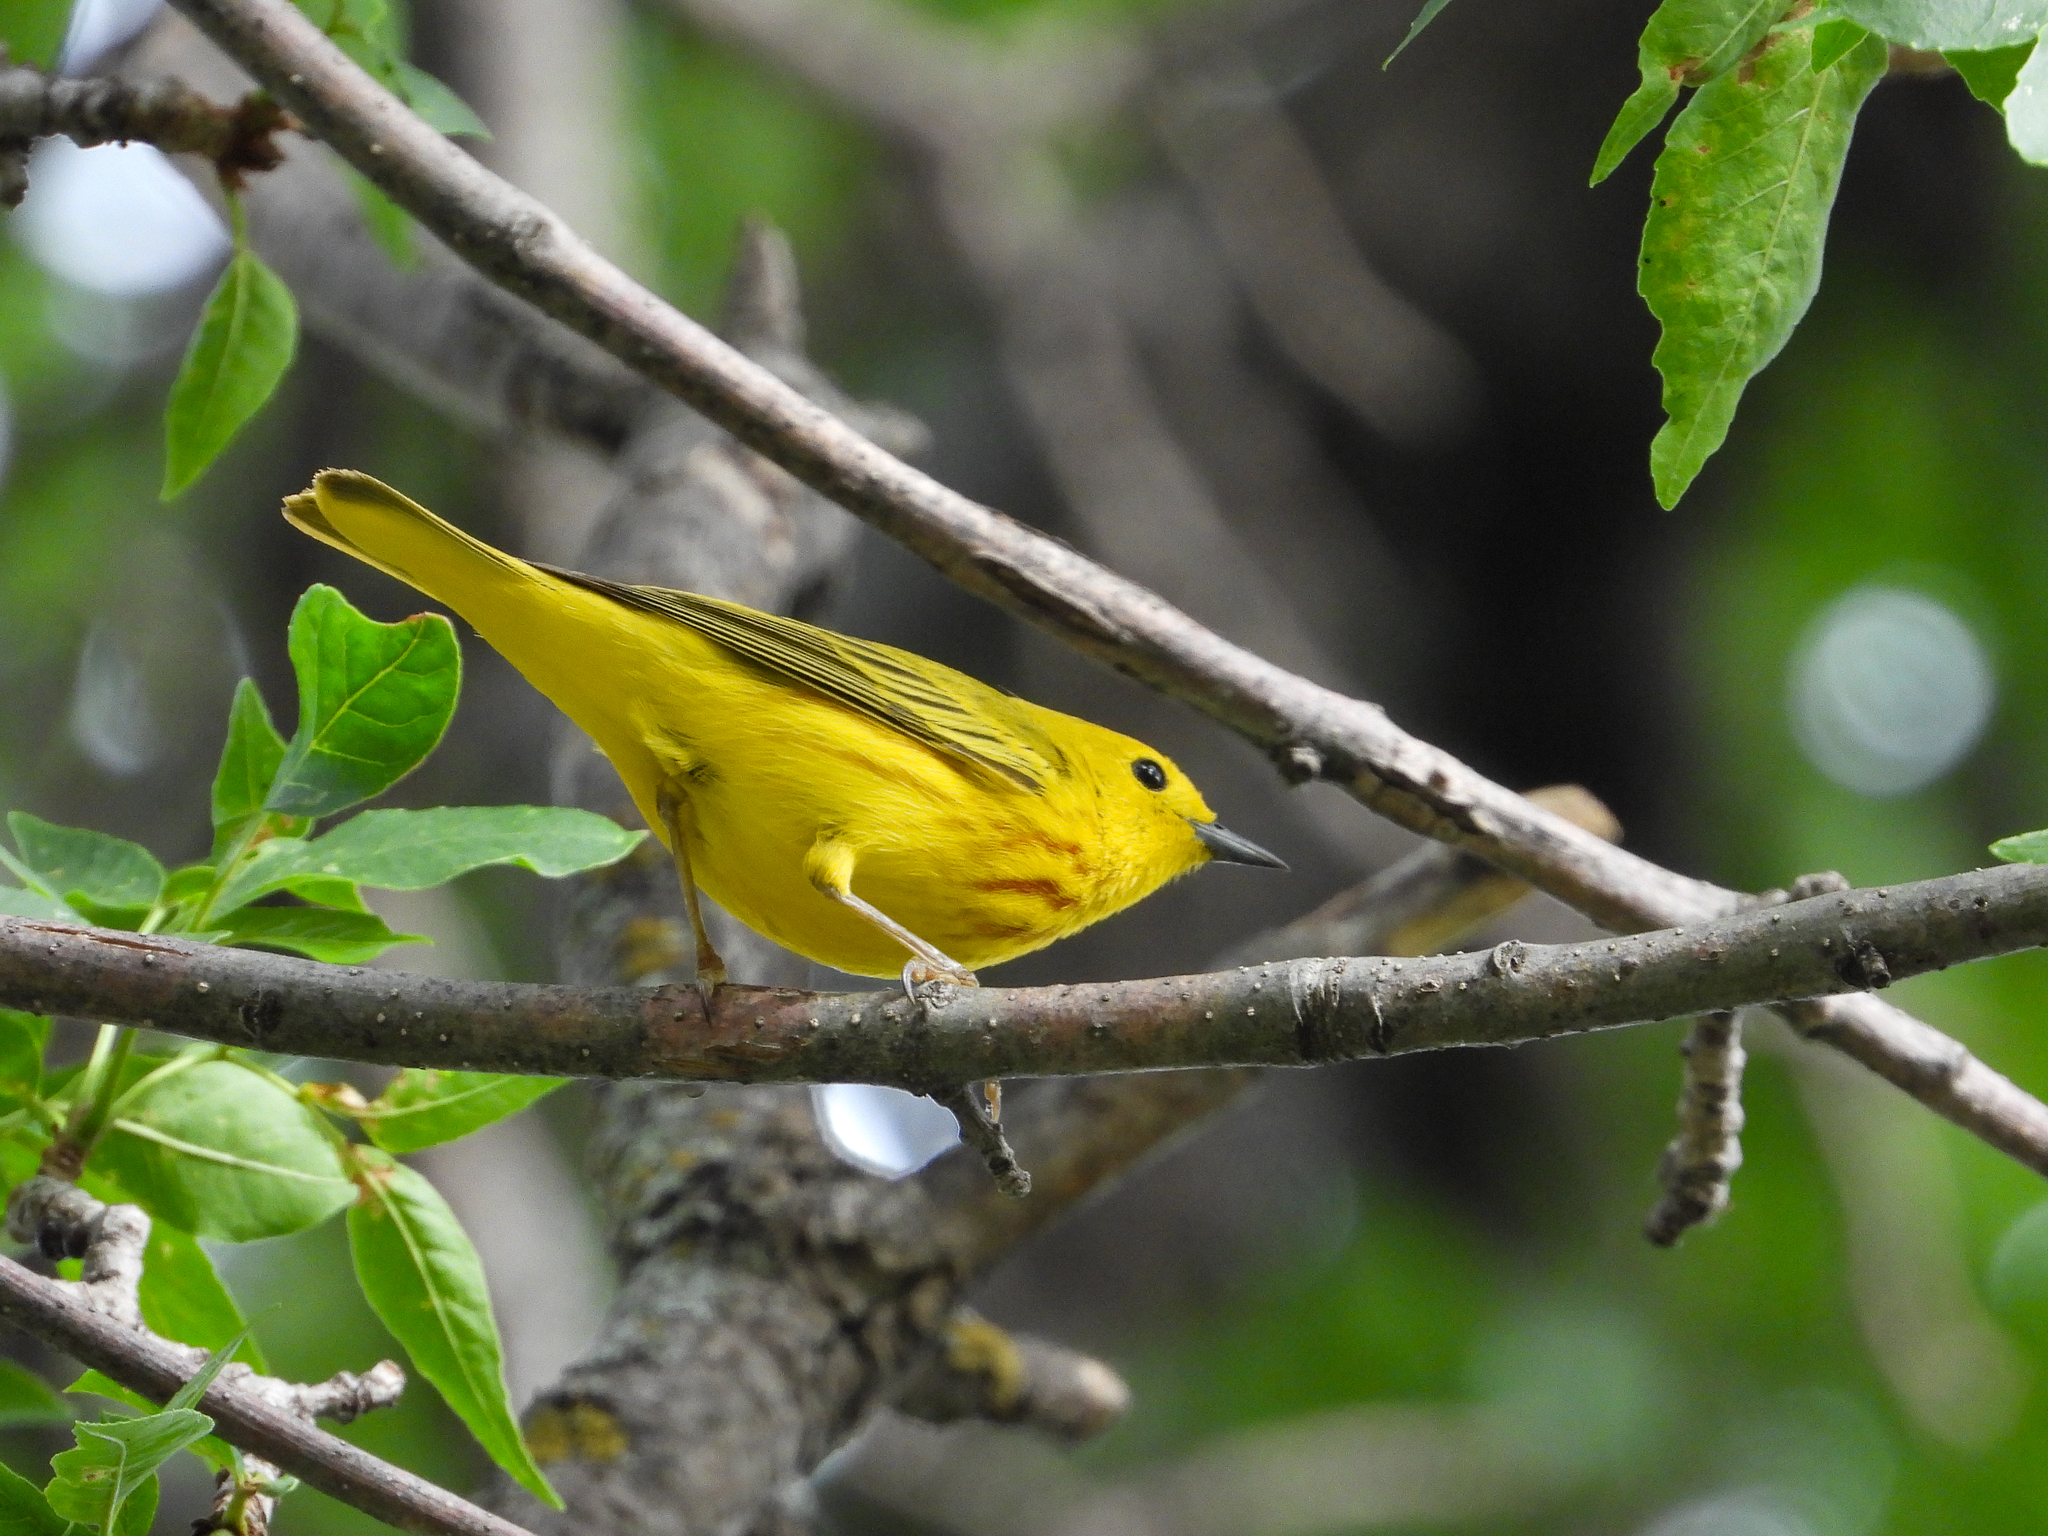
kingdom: Animalia
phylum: Chordata
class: Aves
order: Passeriformes
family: Parulidae
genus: Setophaga
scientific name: Setophaga petechia
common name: Yellow warbler
